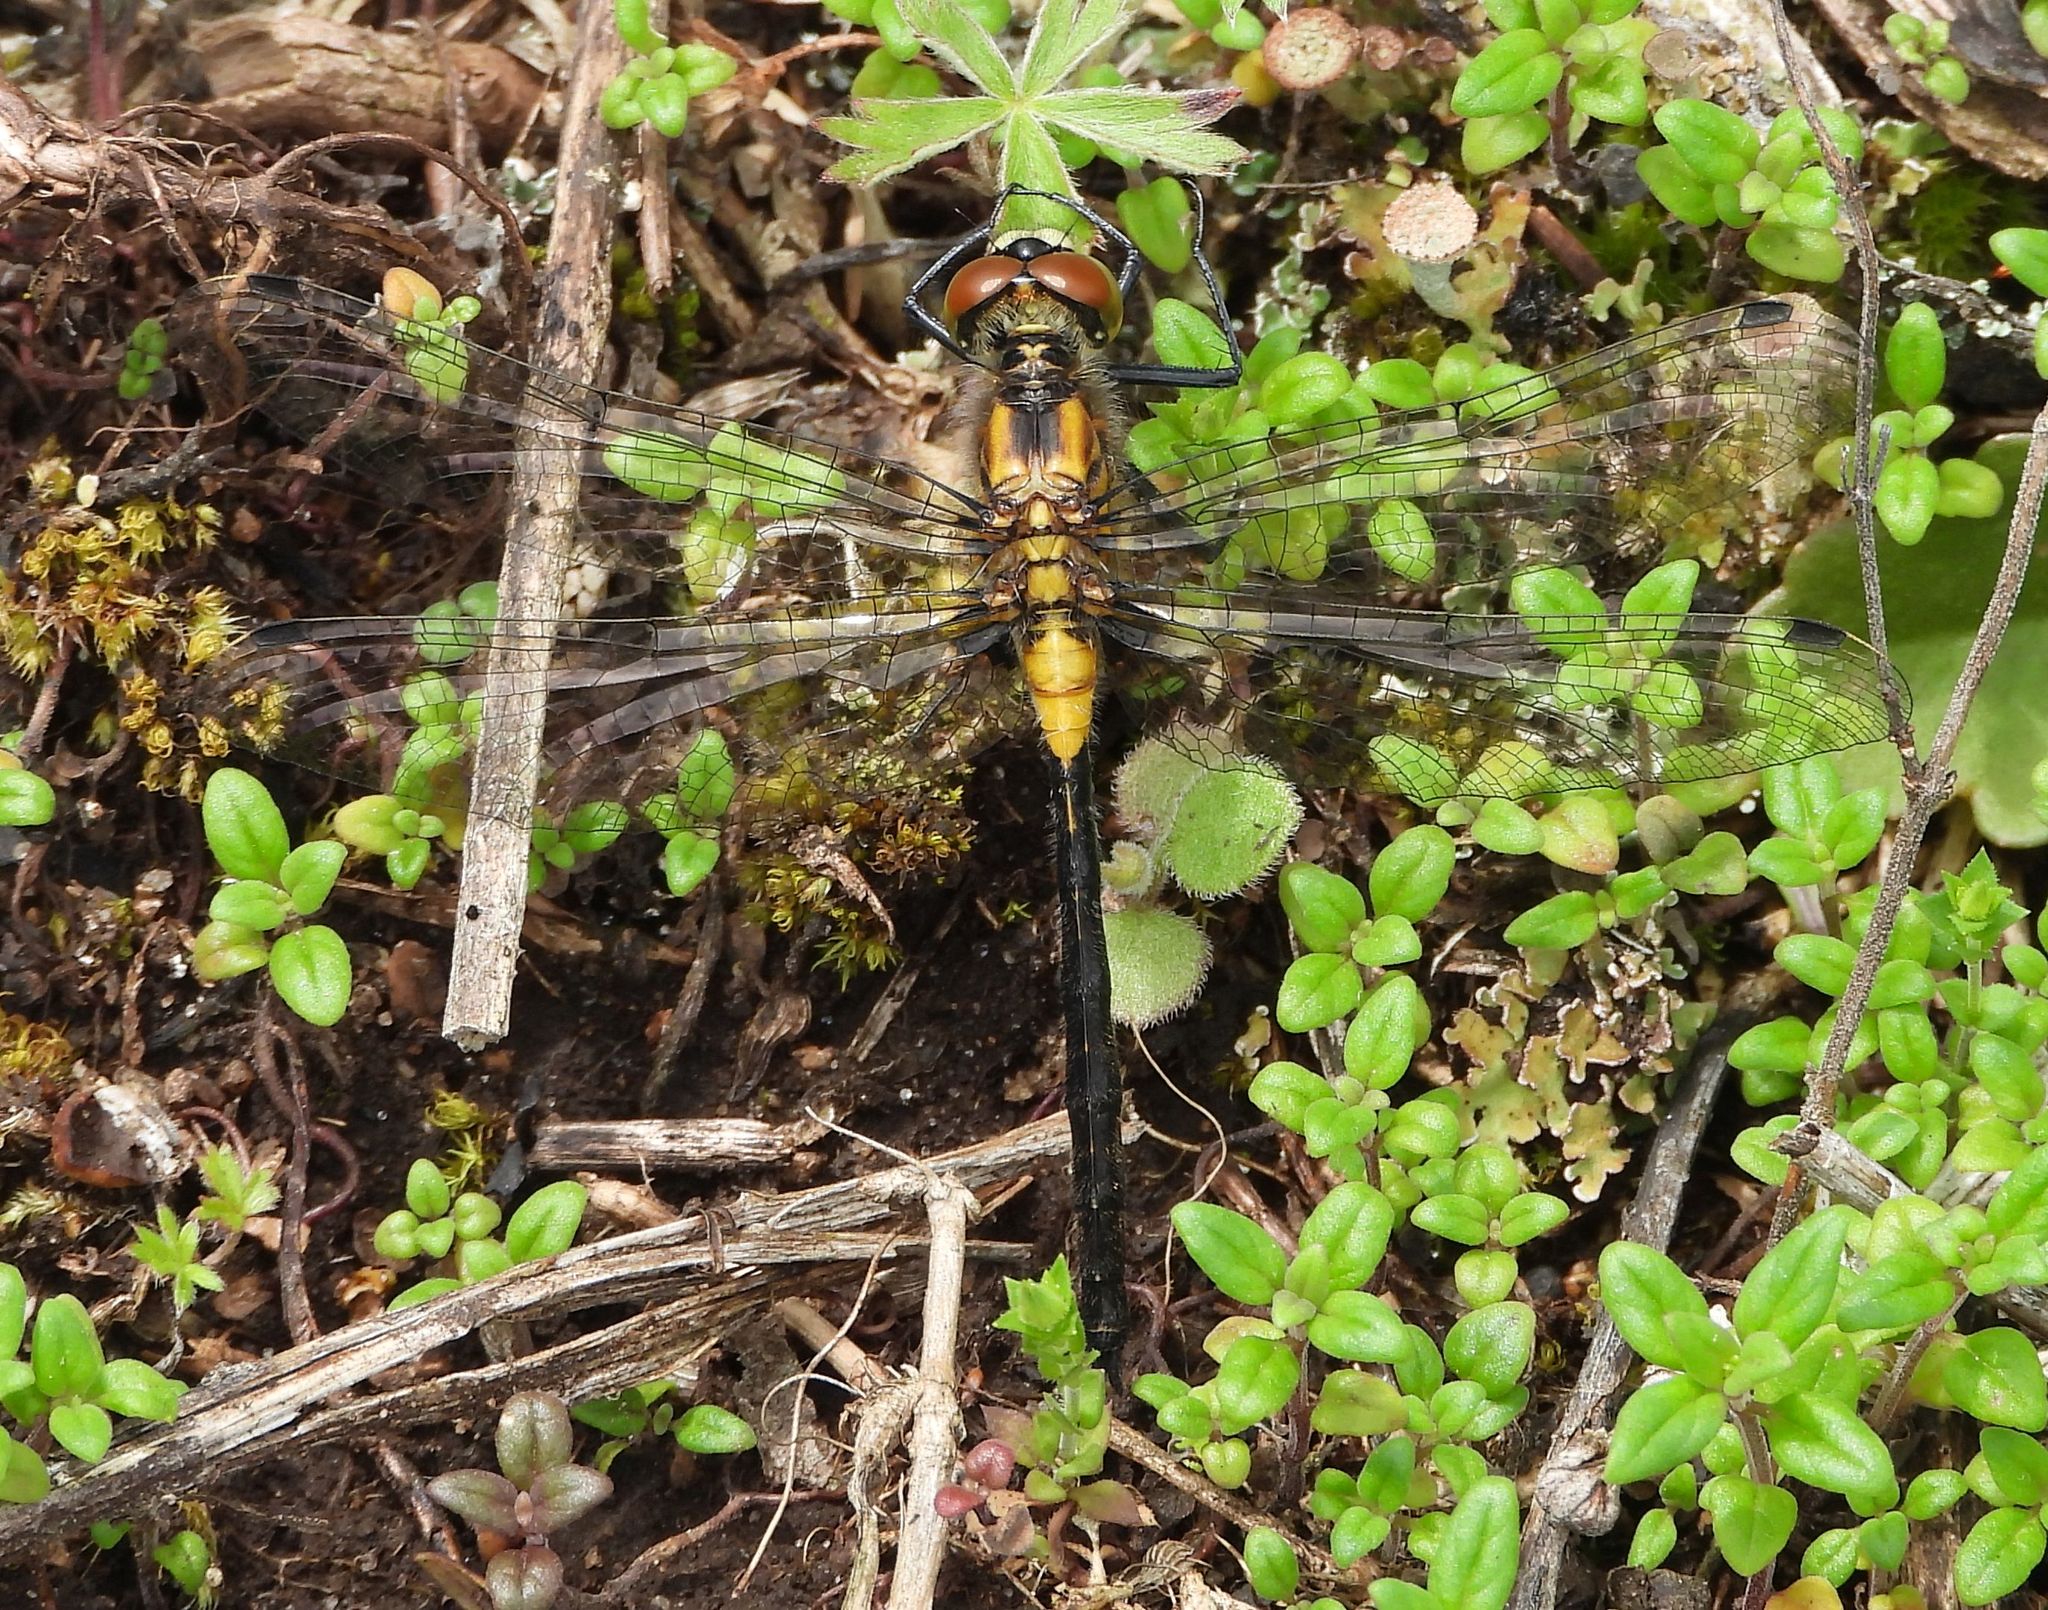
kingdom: Animalia
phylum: Arthropoda
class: Insecta
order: Odonata
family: Libellulidae
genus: Leucorrhinia
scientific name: Leucorrhinia proxima
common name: Belted whiteface
